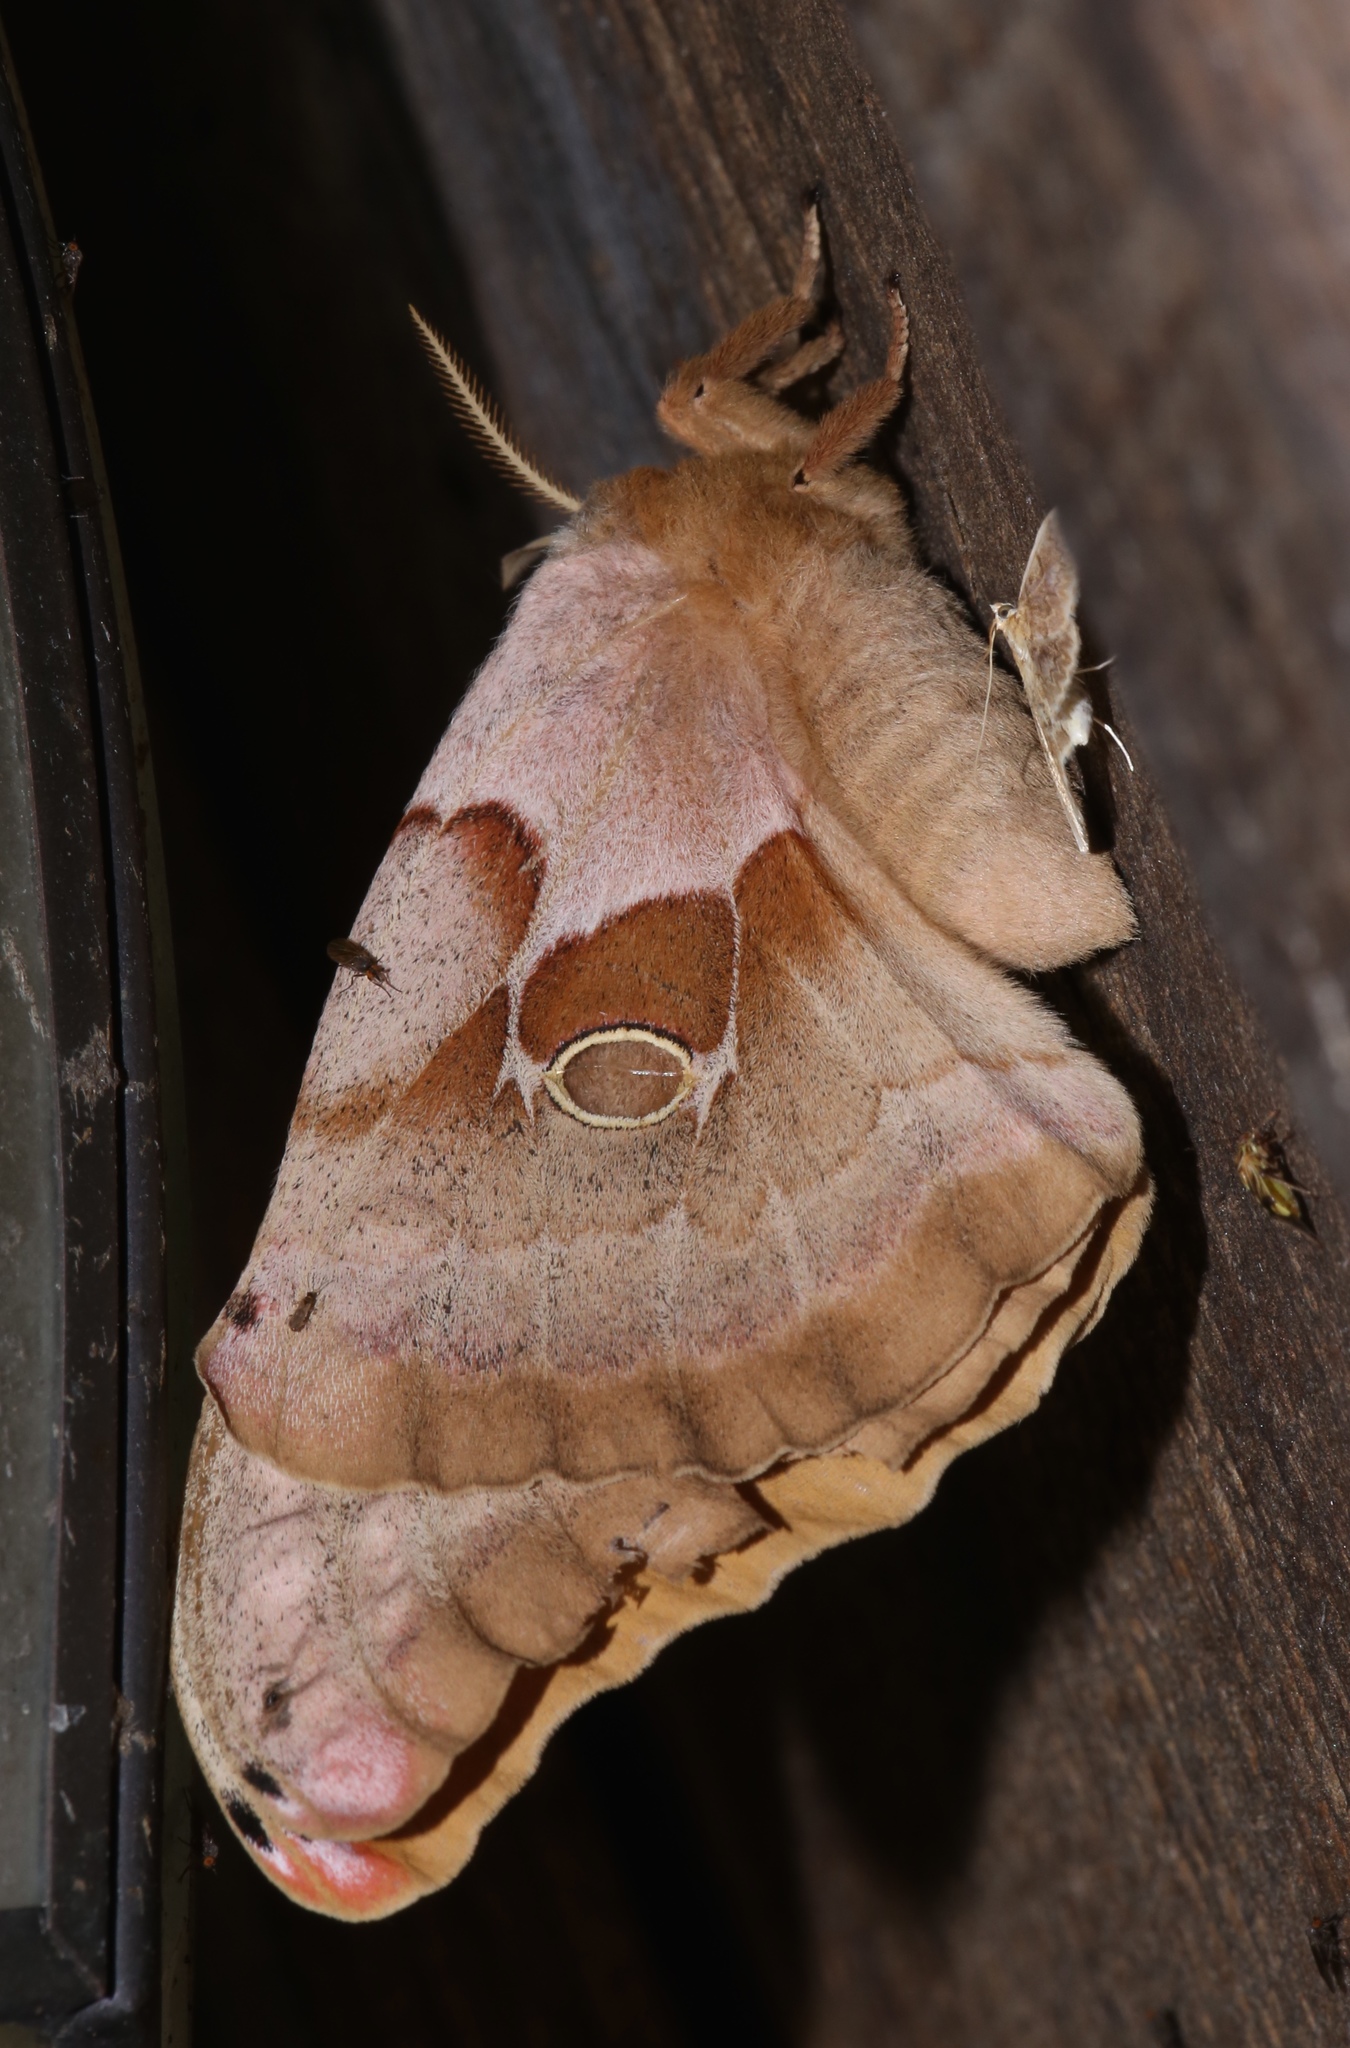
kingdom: Animalia
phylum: Arthropoda
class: Insecta
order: Lepidoptera
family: Saturniidae
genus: Antheraea
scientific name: Antheraea polyphemus
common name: Polyphemus moth
